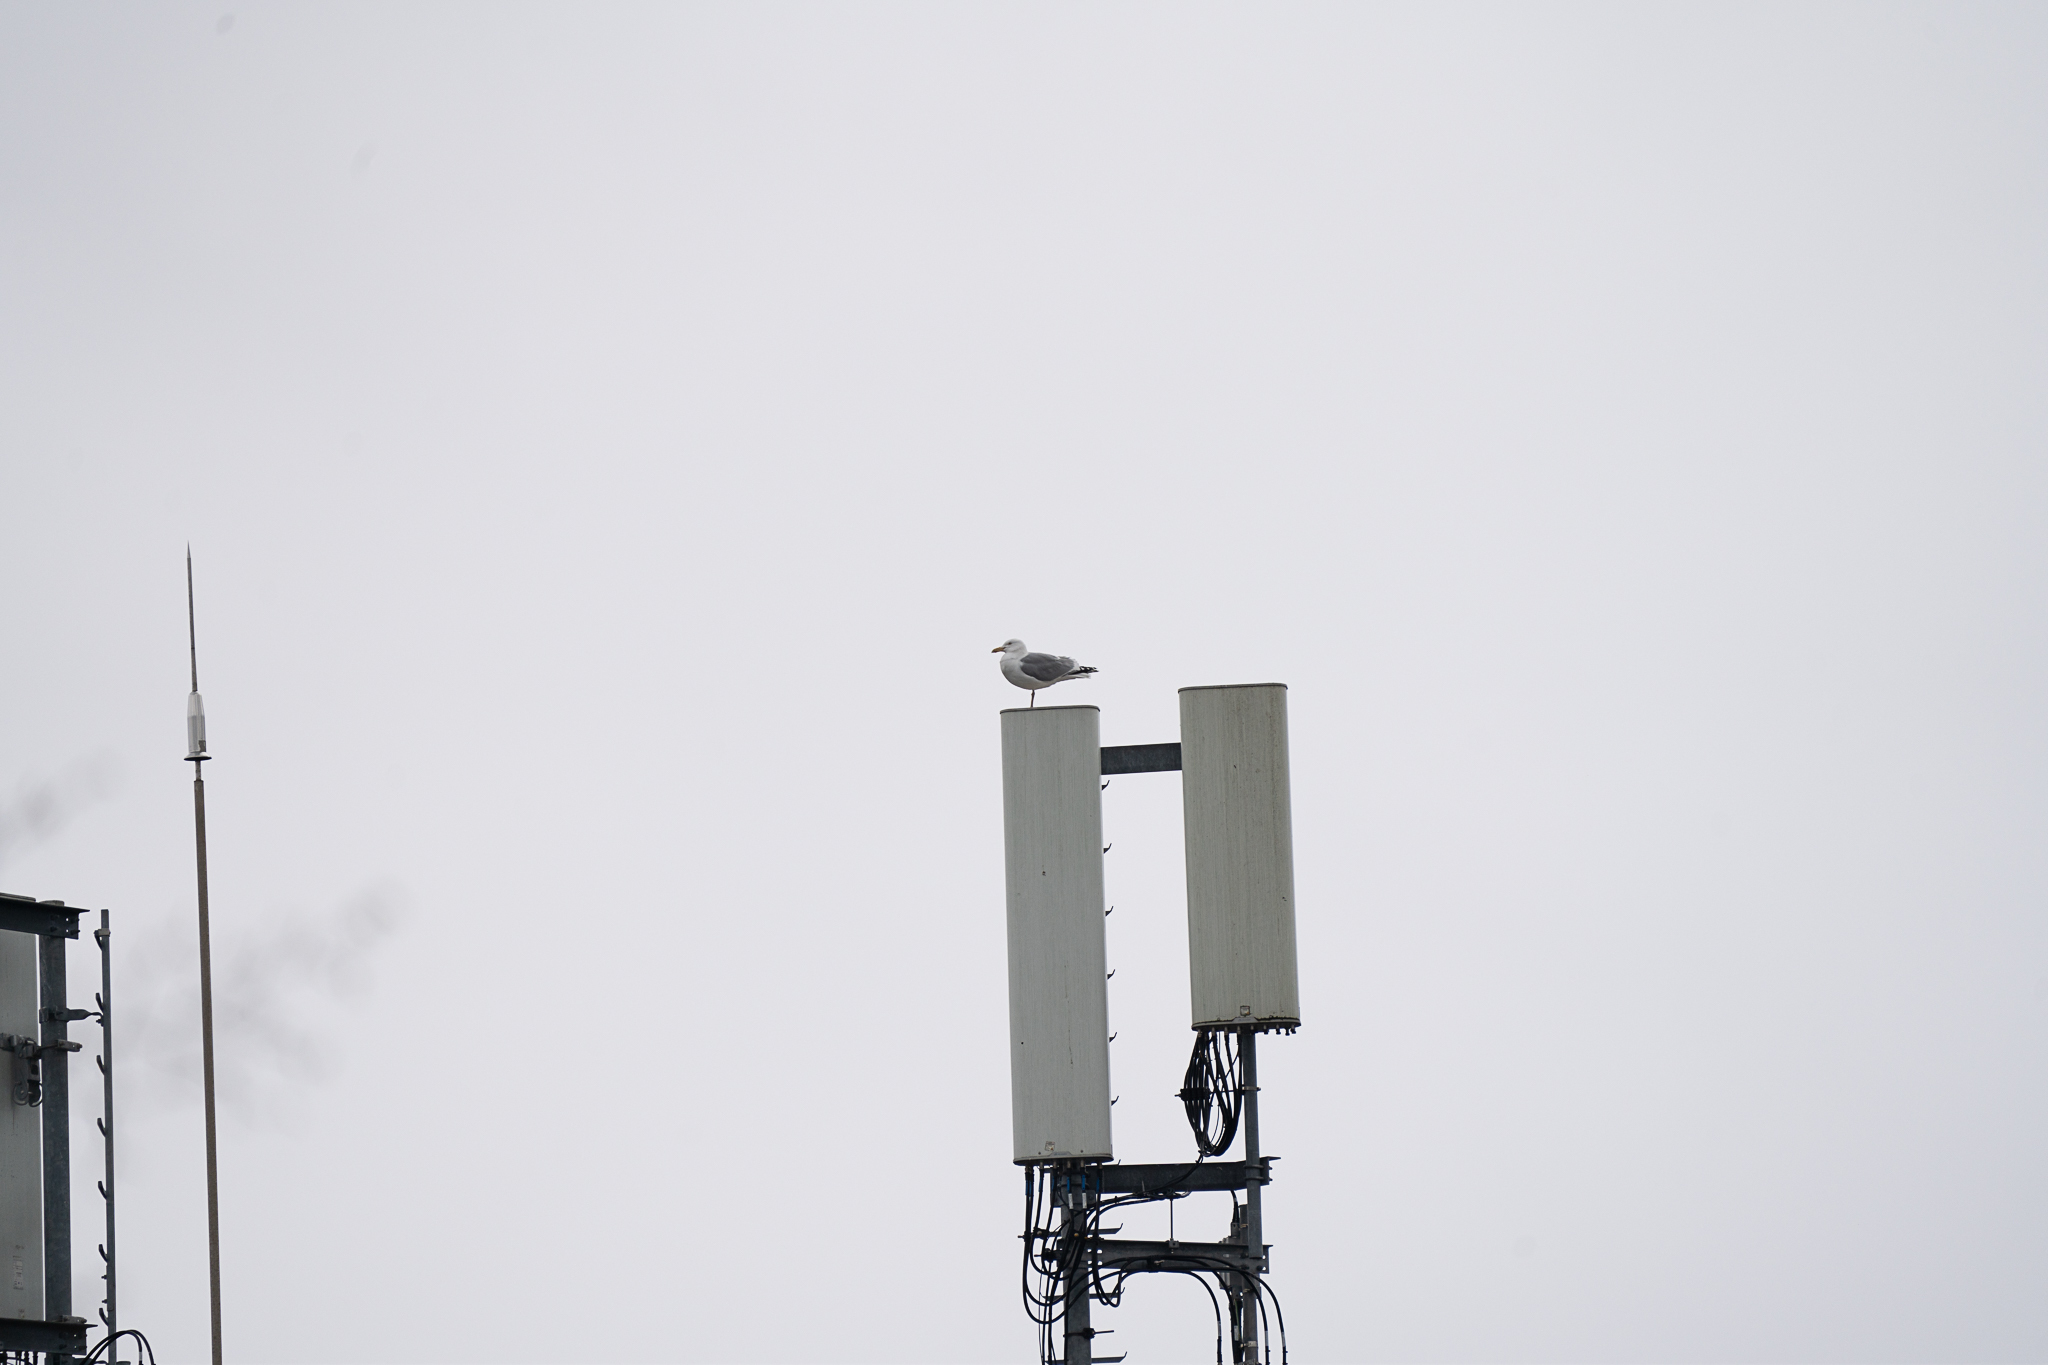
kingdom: Animalia
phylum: Chordata
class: Aves
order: Charadriiformes
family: Laridae
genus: Larus
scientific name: Larus argentatus
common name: Herring gull
